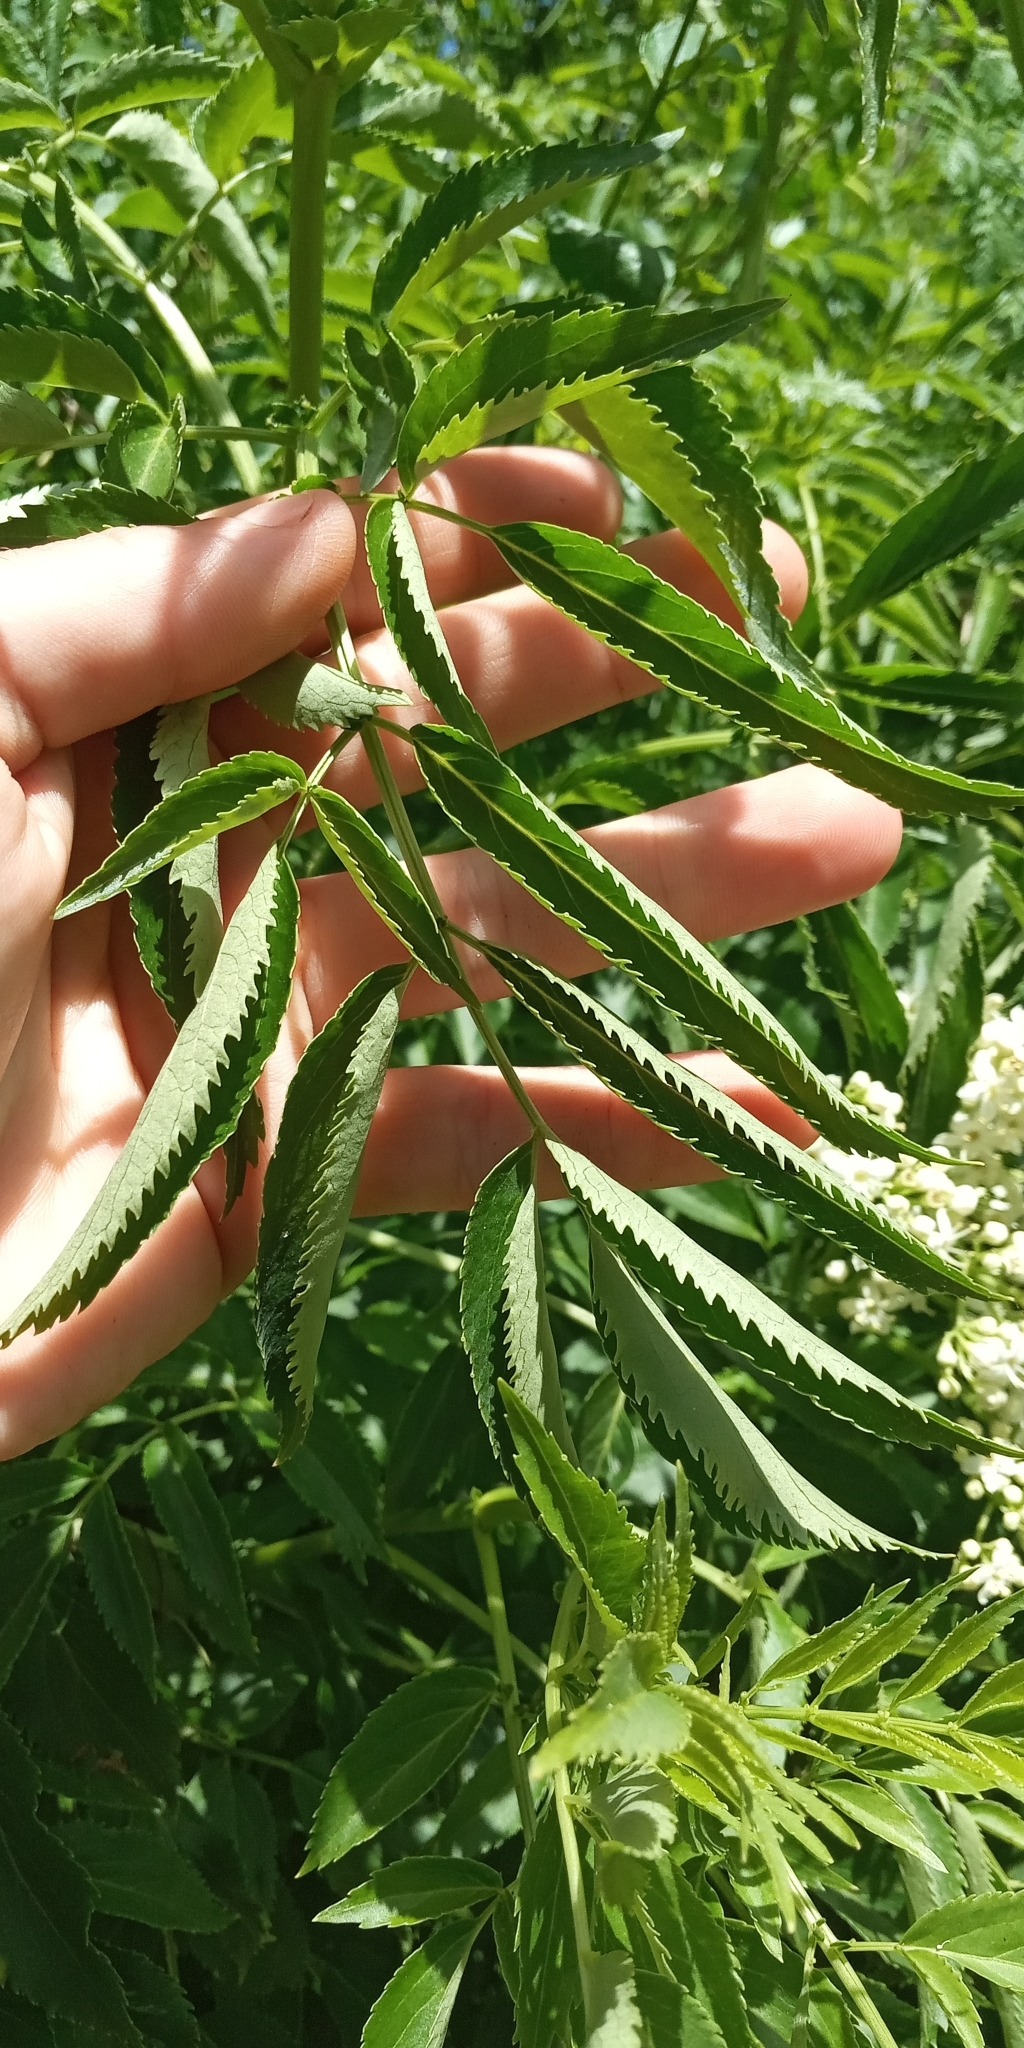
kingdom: Plantae
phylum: Tracheophyta
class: Magnoliopsida
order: Dipsacales
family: Viburnaceae
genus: Sambucus
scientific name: Sambucus australis
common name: Southern elder
